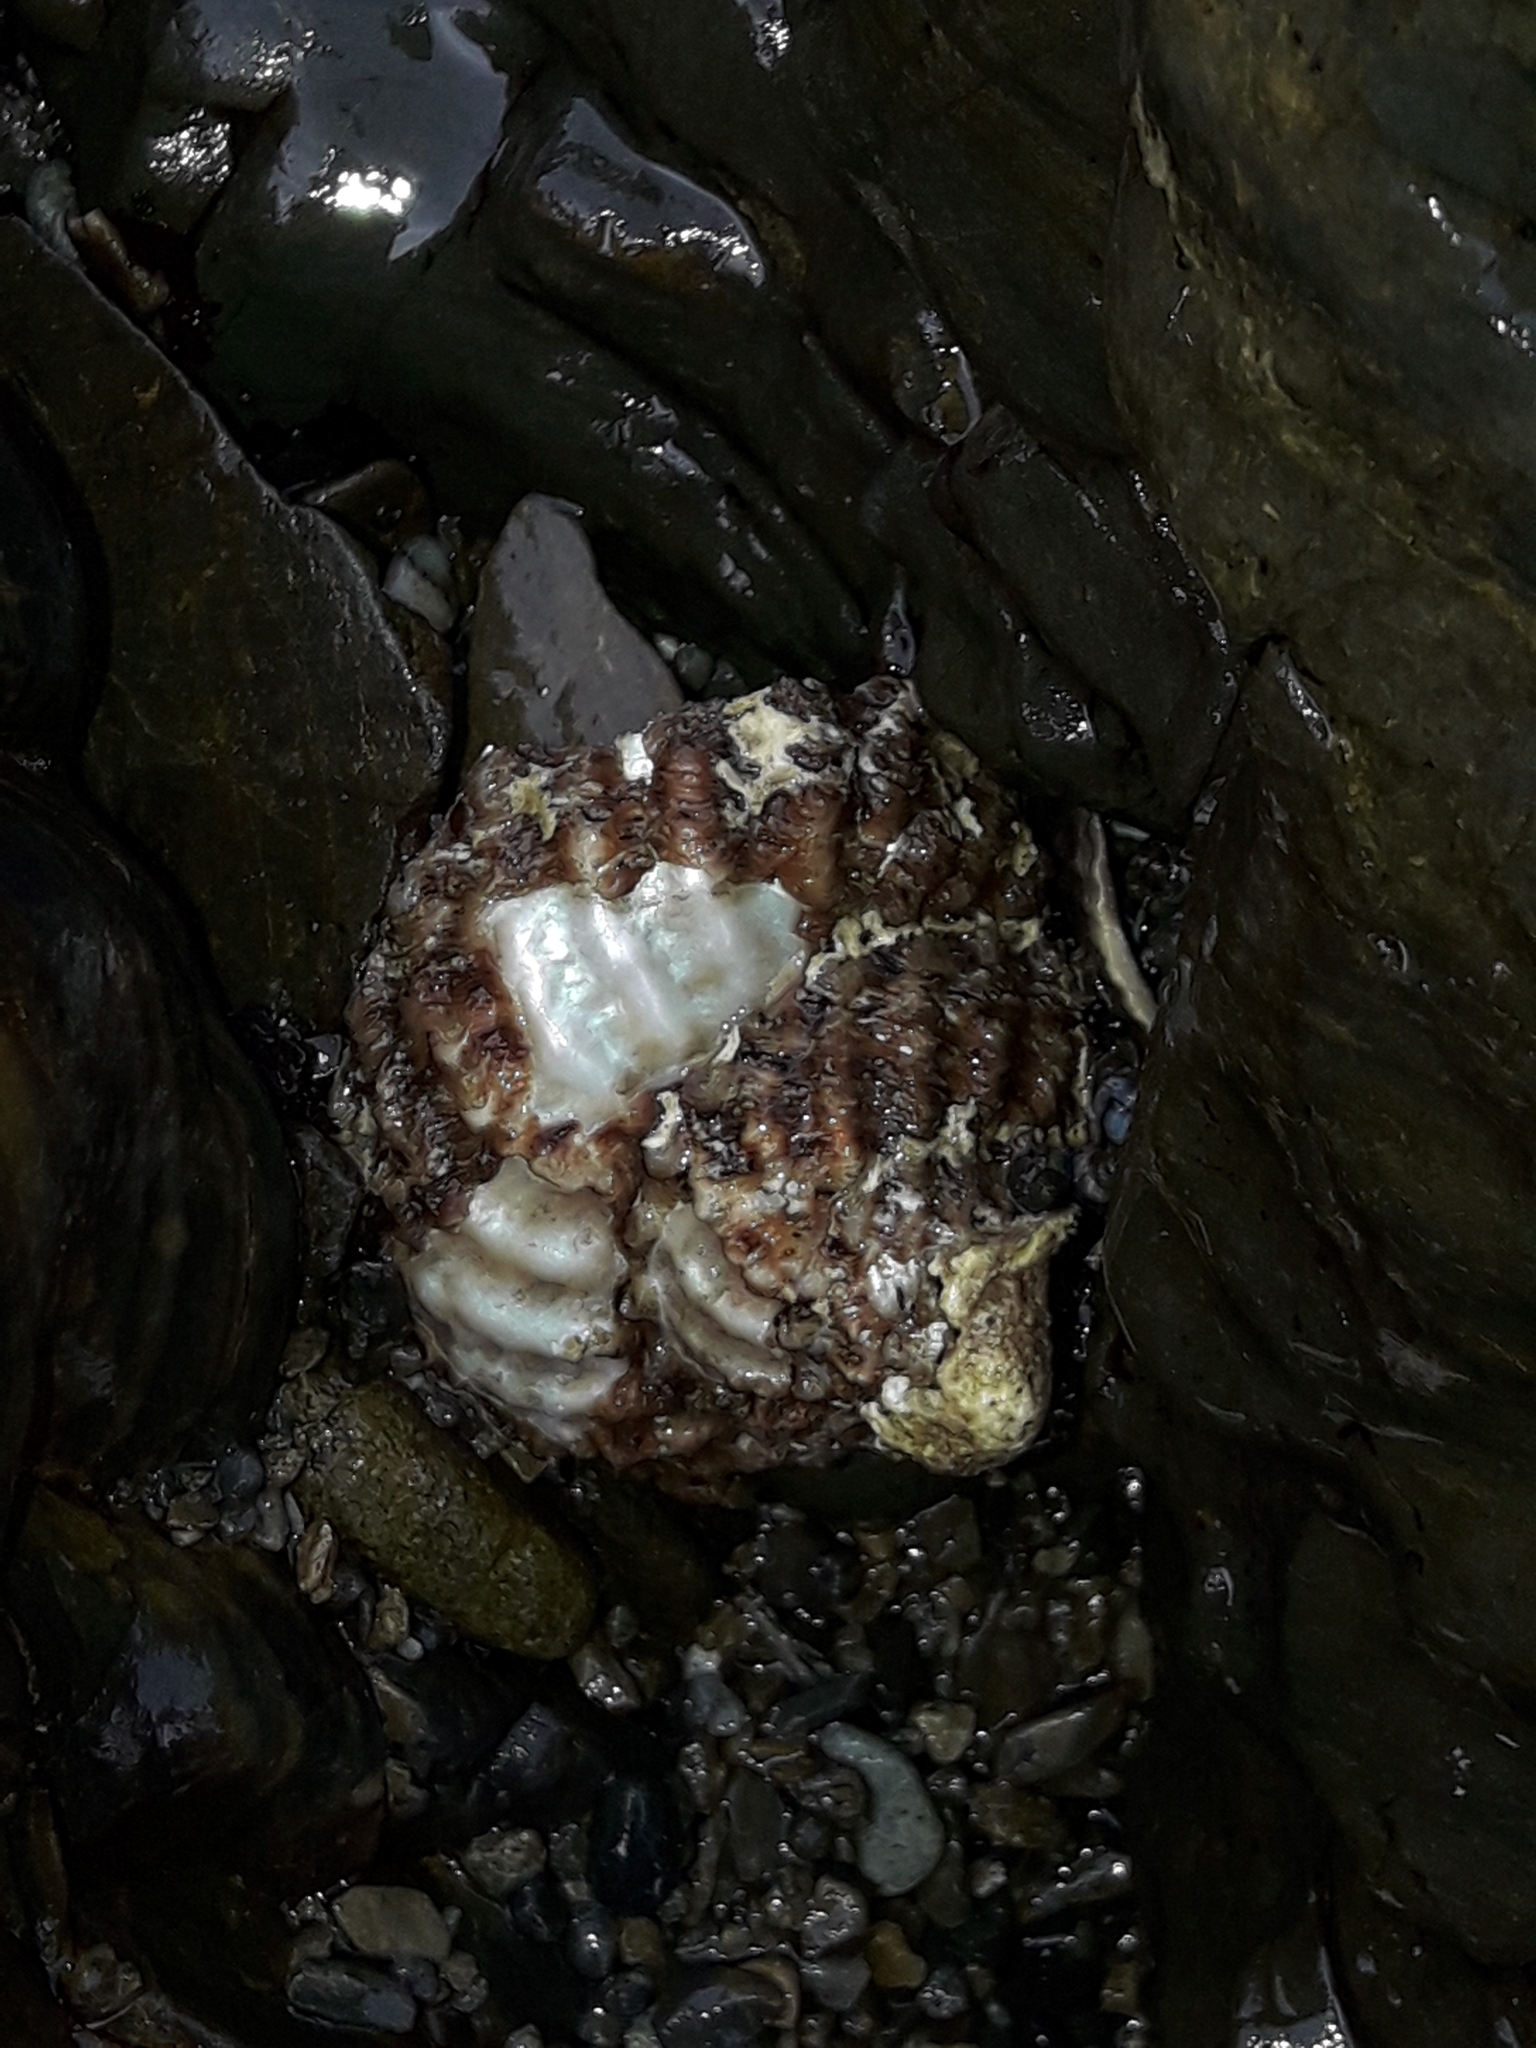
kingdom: Animalia
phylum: Mollusca
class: Gastropoda
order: Trochida
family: Turbinidae
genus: Cookia
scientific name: Cookia sulcata
